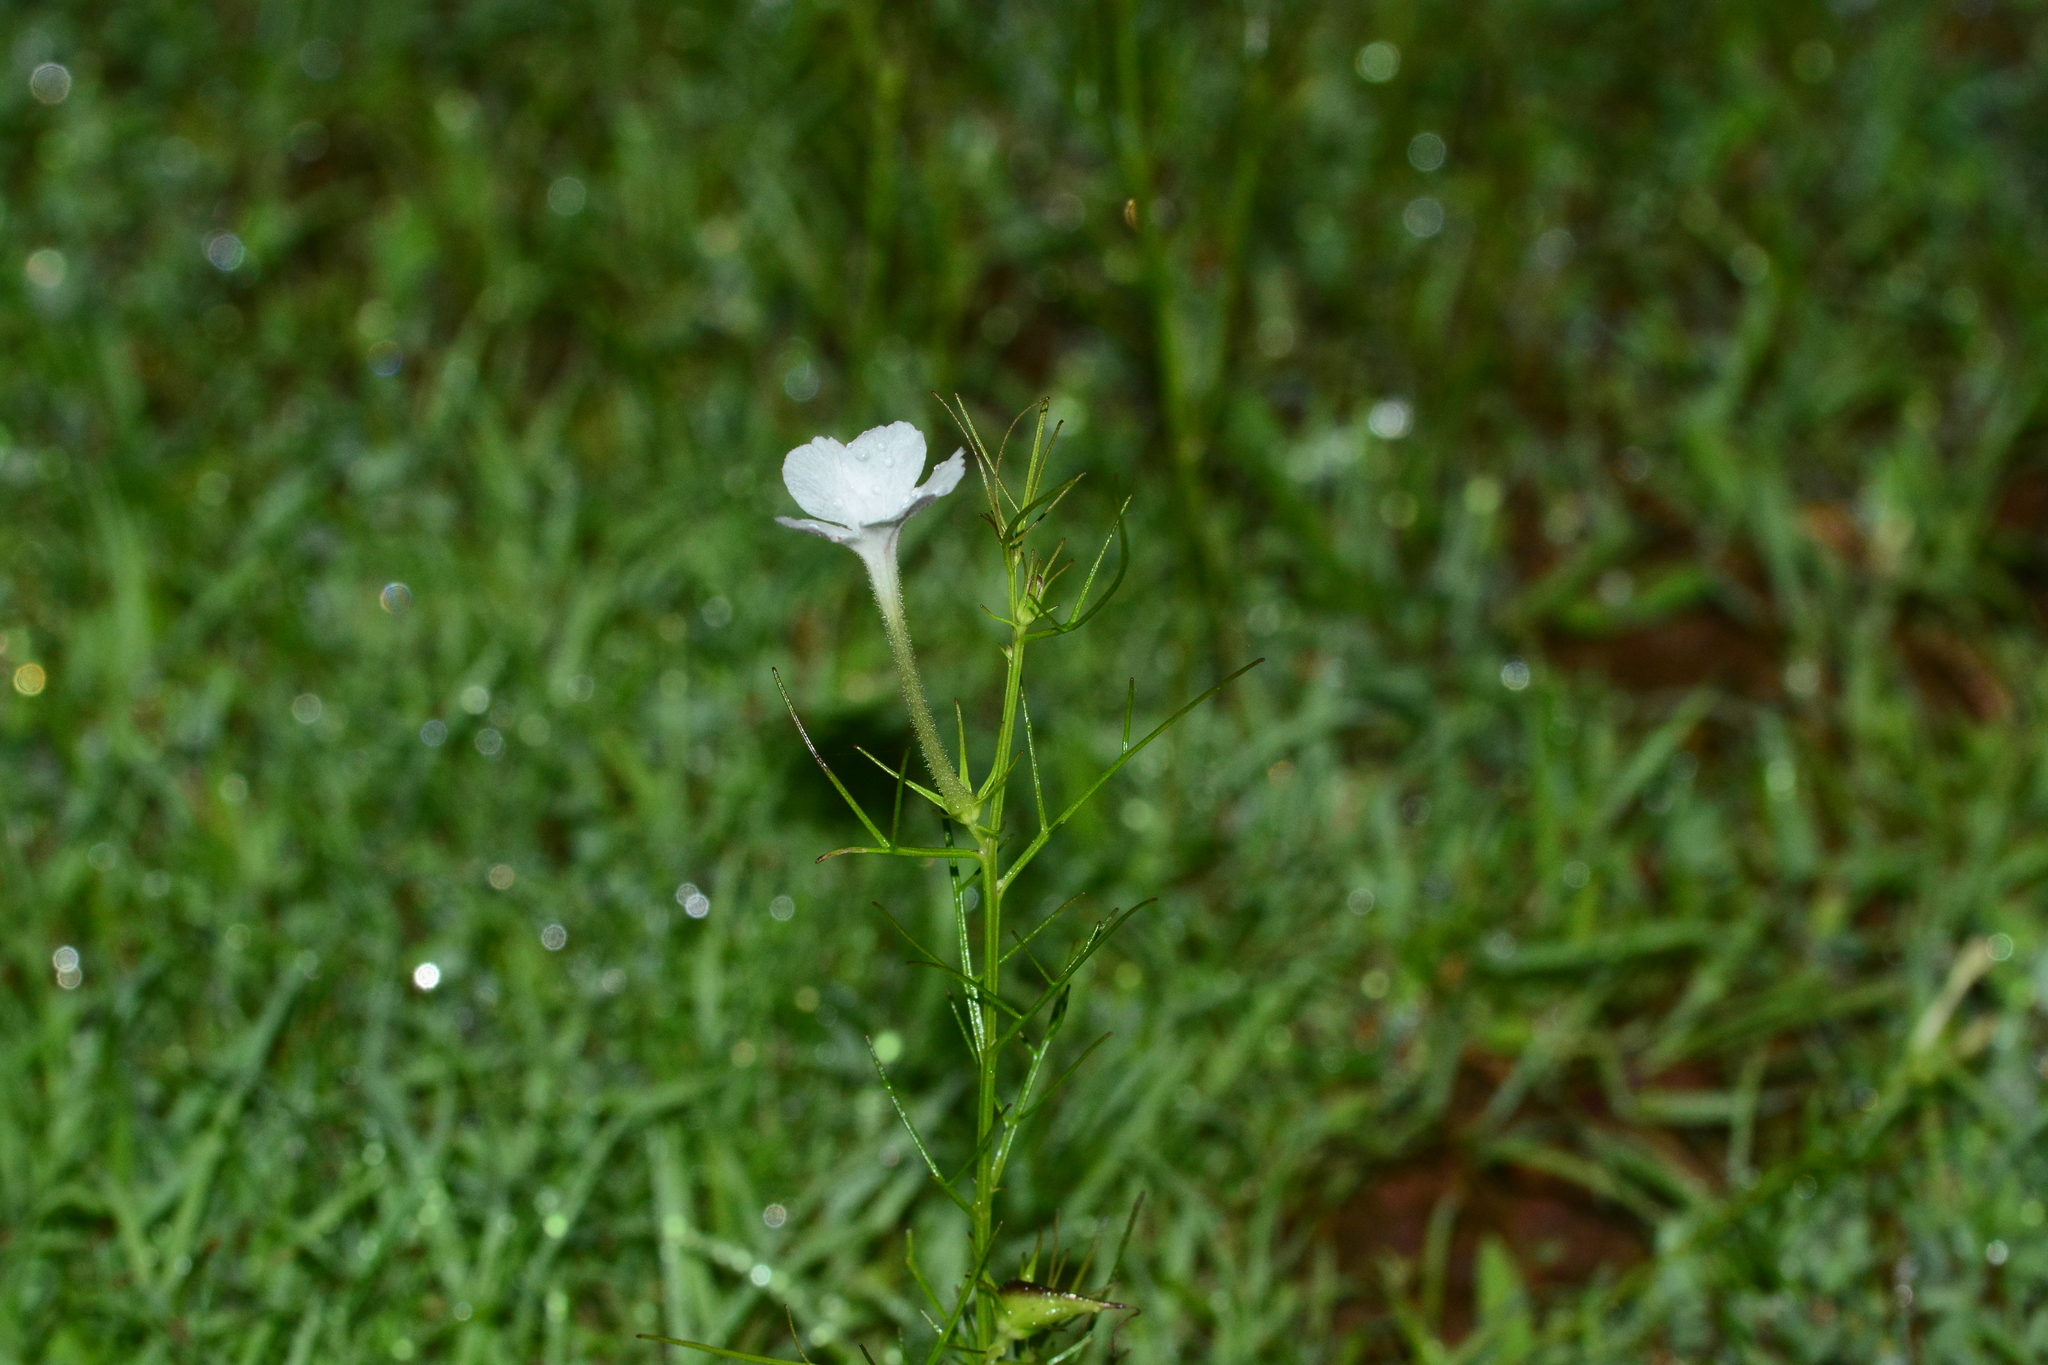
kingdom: Plantae
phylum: Tracheophyta
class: Magnoliopsida
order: Lamiales
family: Orobanchaceae
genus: Rhamphicarpa
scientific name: Rhamphicarpa fistulosa
